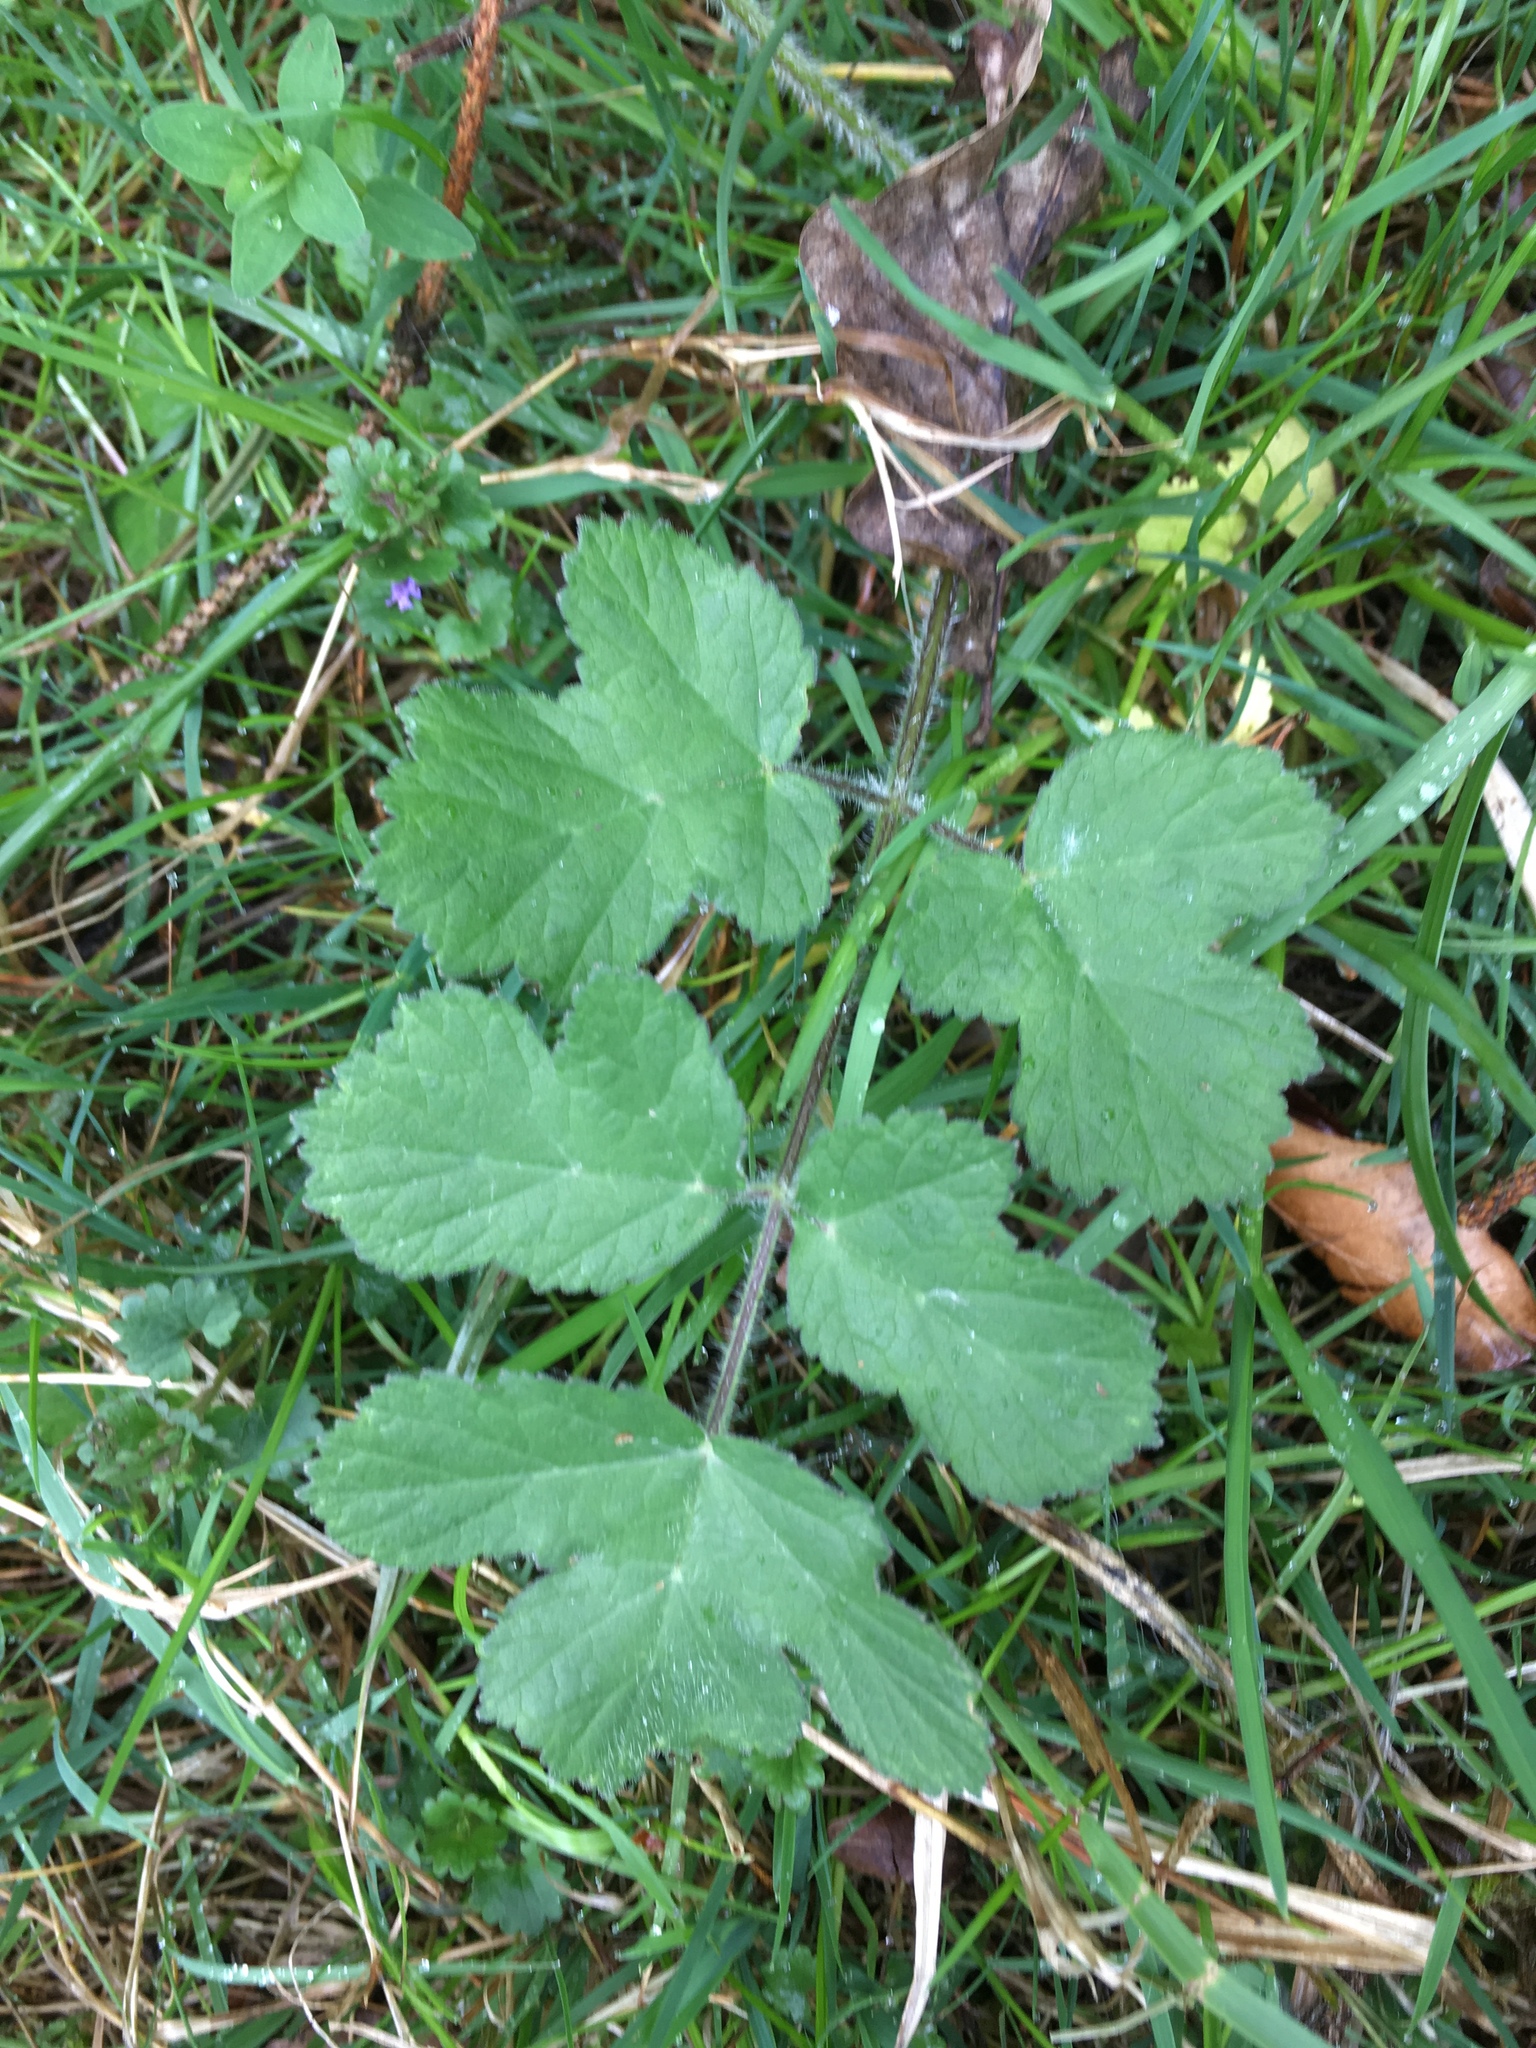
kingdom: Plantae
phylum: Tracheophyta
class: Magnoliopsida
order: Apiales
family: Apiaceae
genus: Heracleum
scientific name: Heracleum sphondylium
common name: Hogweed
